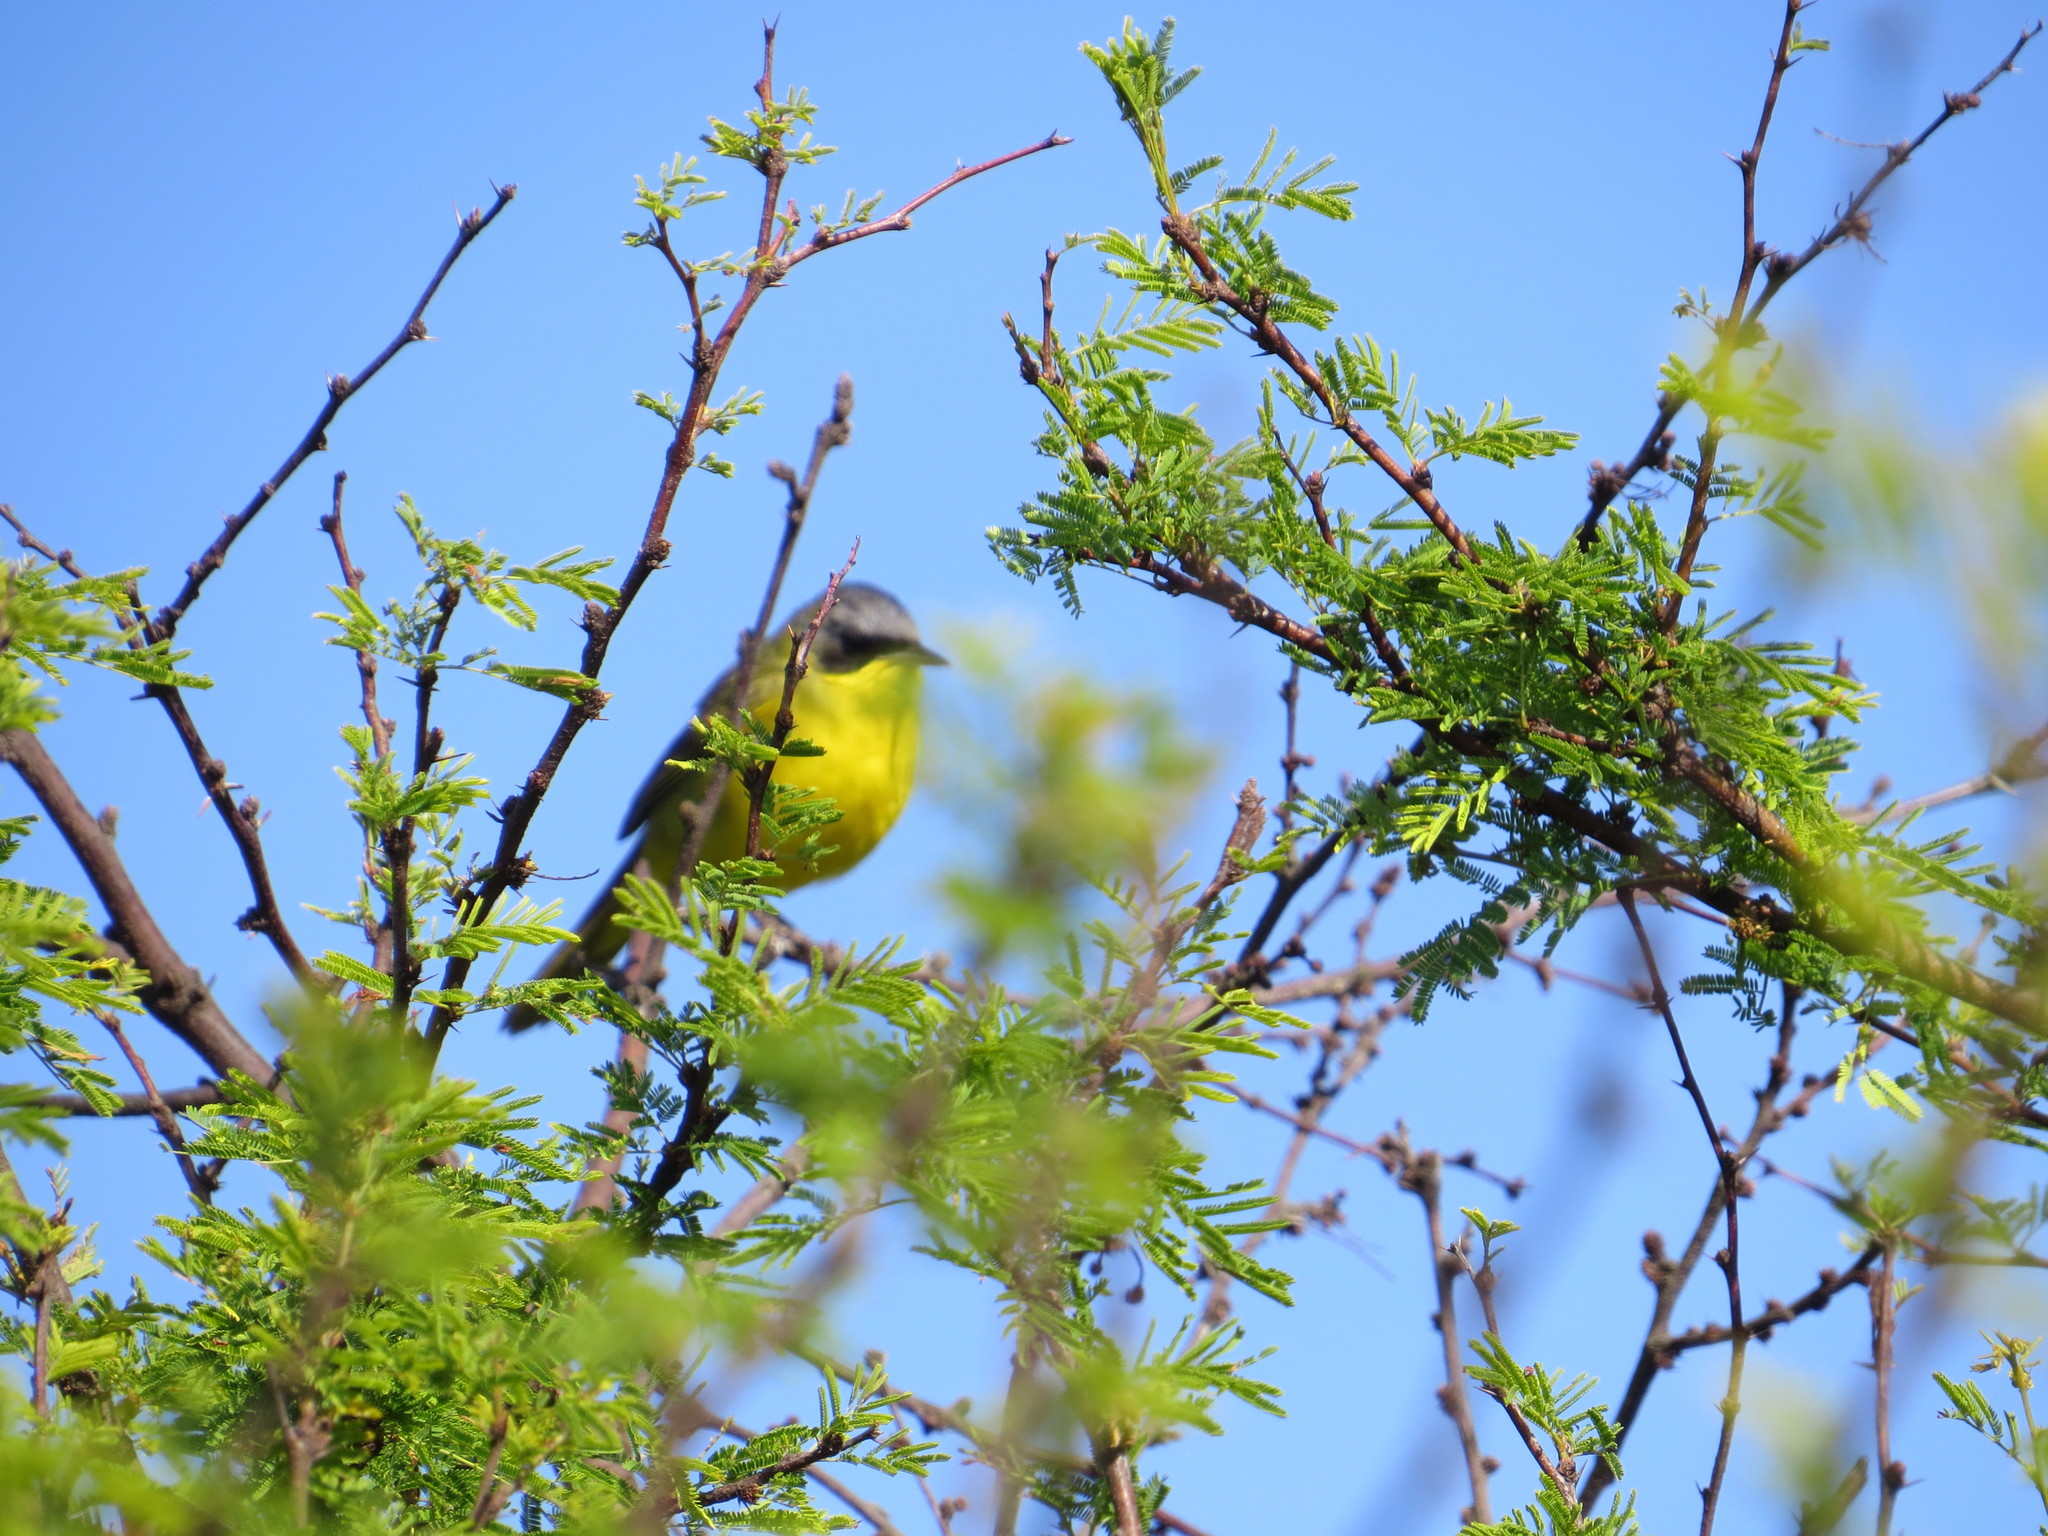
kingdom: Animalia
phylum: Chordata
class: Aves
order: Passeriformes
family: Parulidae
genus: Geothlypis
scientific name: Geothlypis velata
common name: Southern yellowthroat
